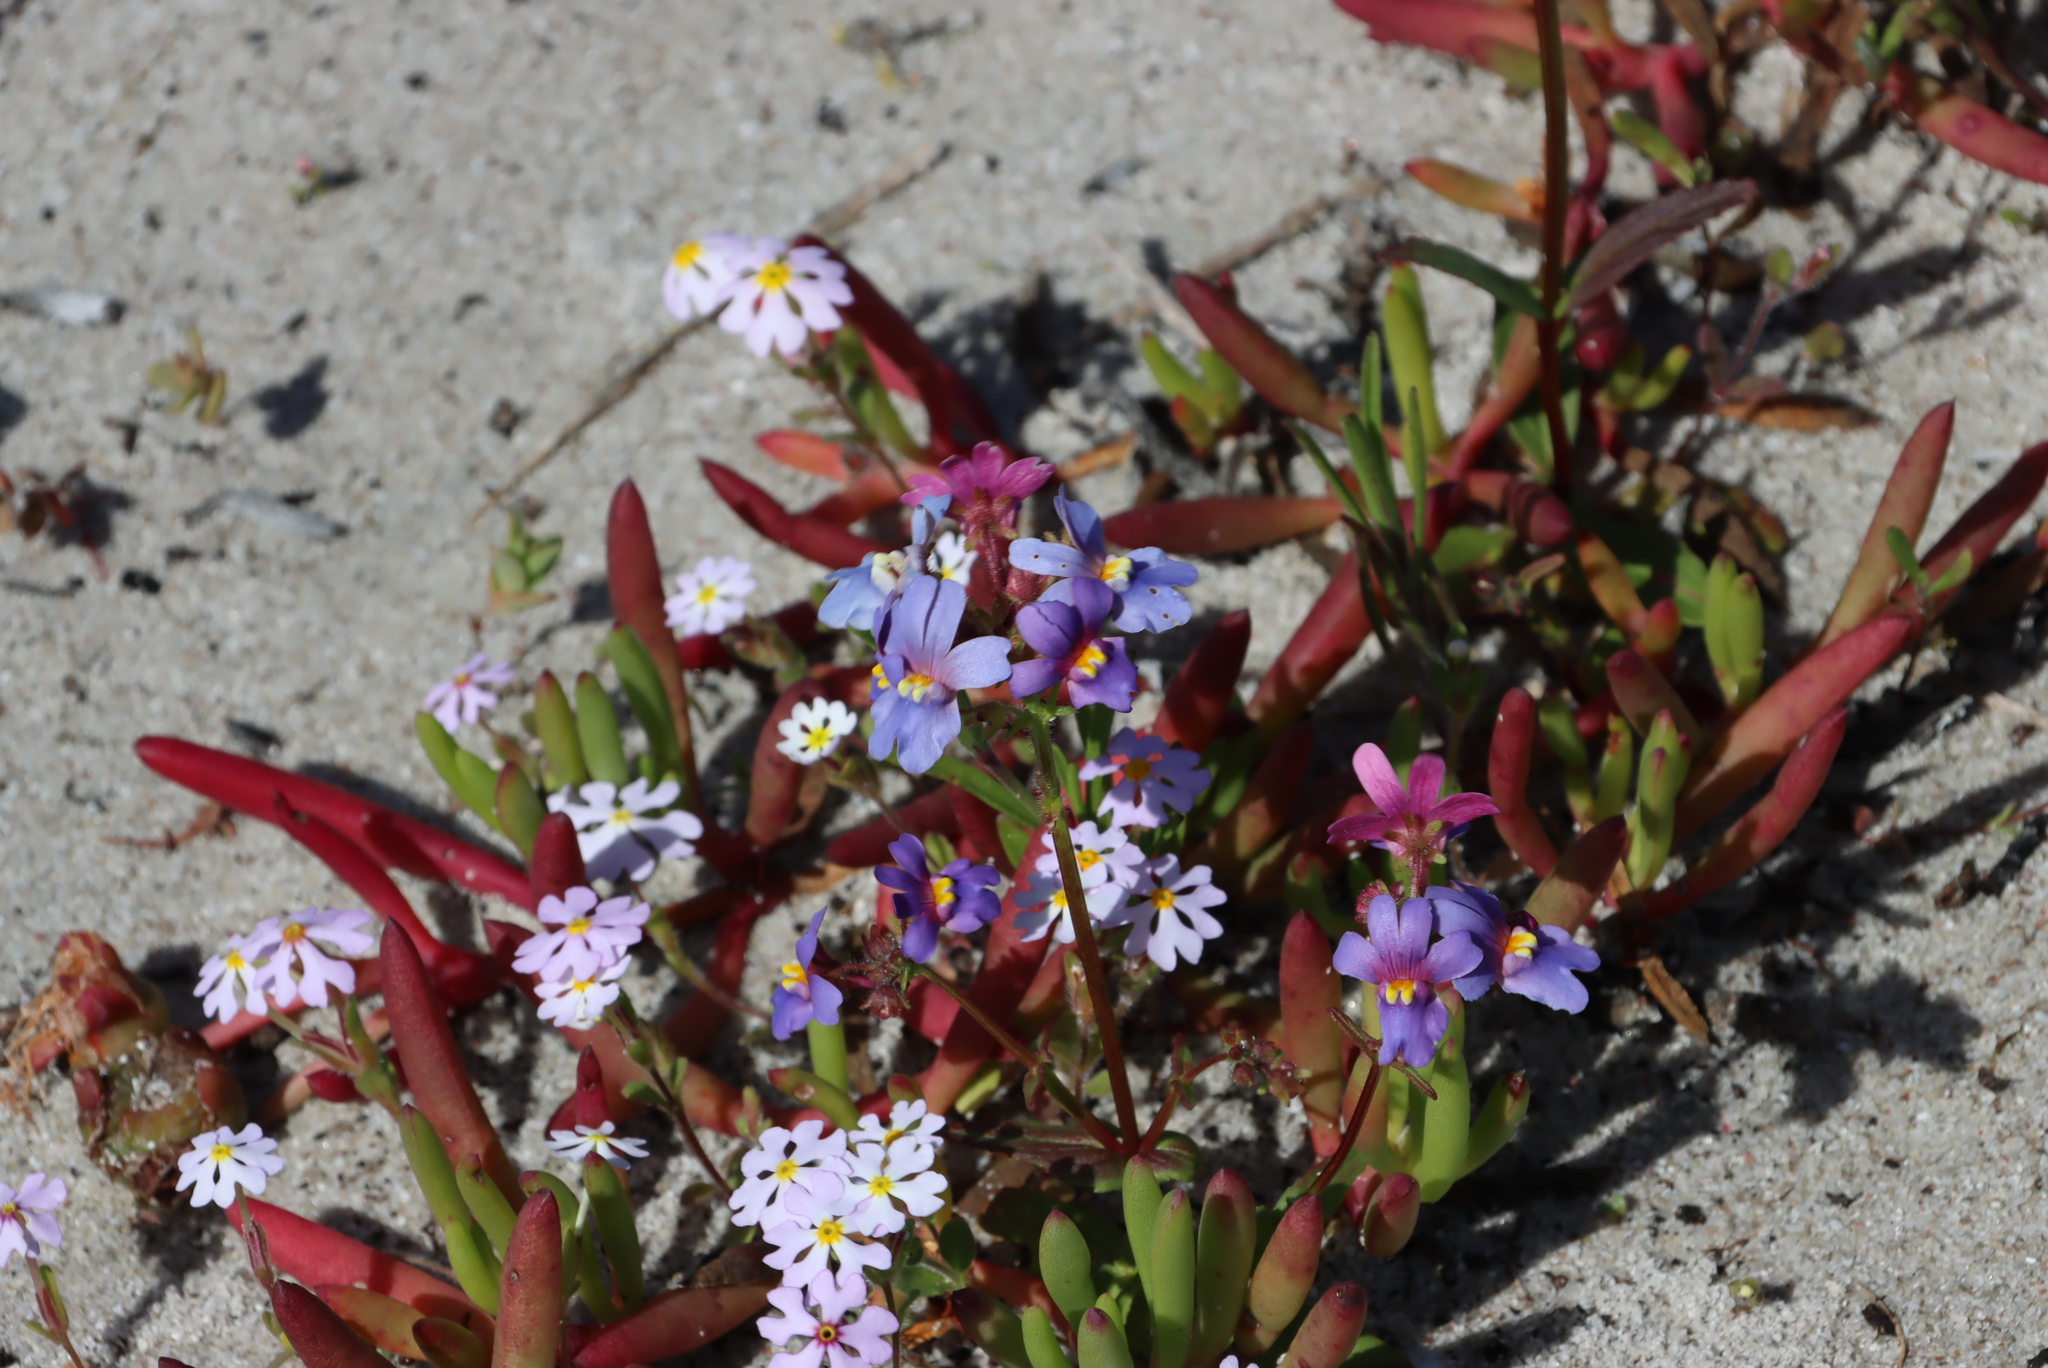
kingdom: Plantae
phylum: Tracheophyta
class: Magnoliopsida
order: Lamiales
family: Scrophulariaceae
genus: Zaluzianskya
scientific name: Zaluzianskya villosa
